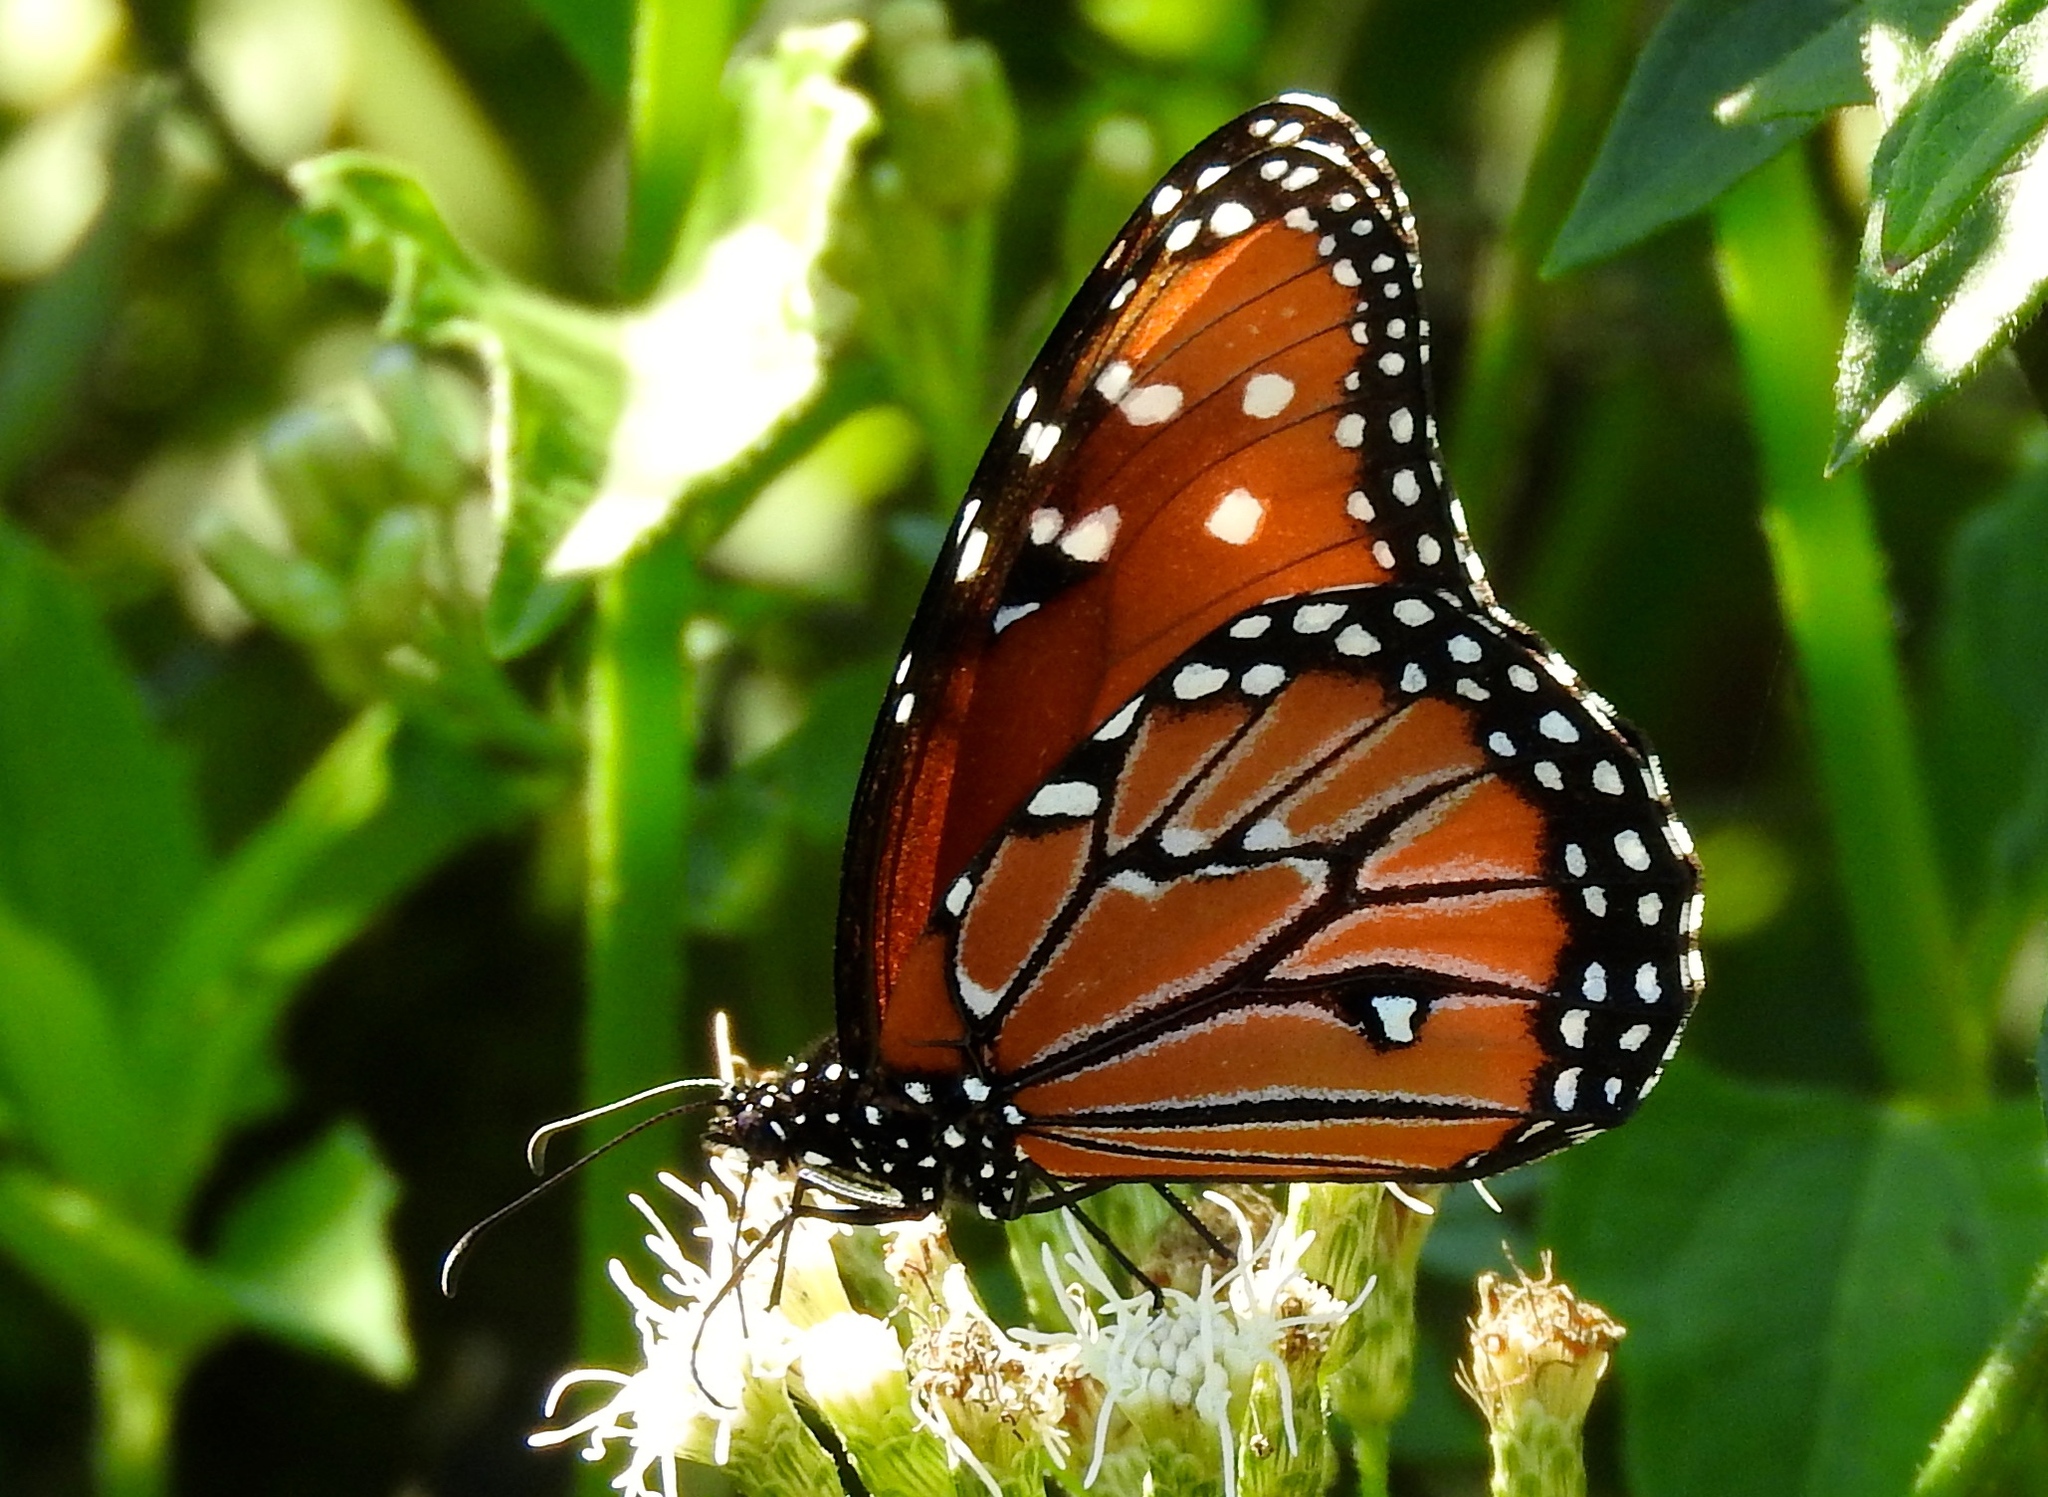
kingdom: Animalia
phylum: Arthropoda
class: Insecta
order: Lepidoptera
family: Nymphalidae
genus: Danaus
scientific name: Danaus gilippus
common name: Queen
